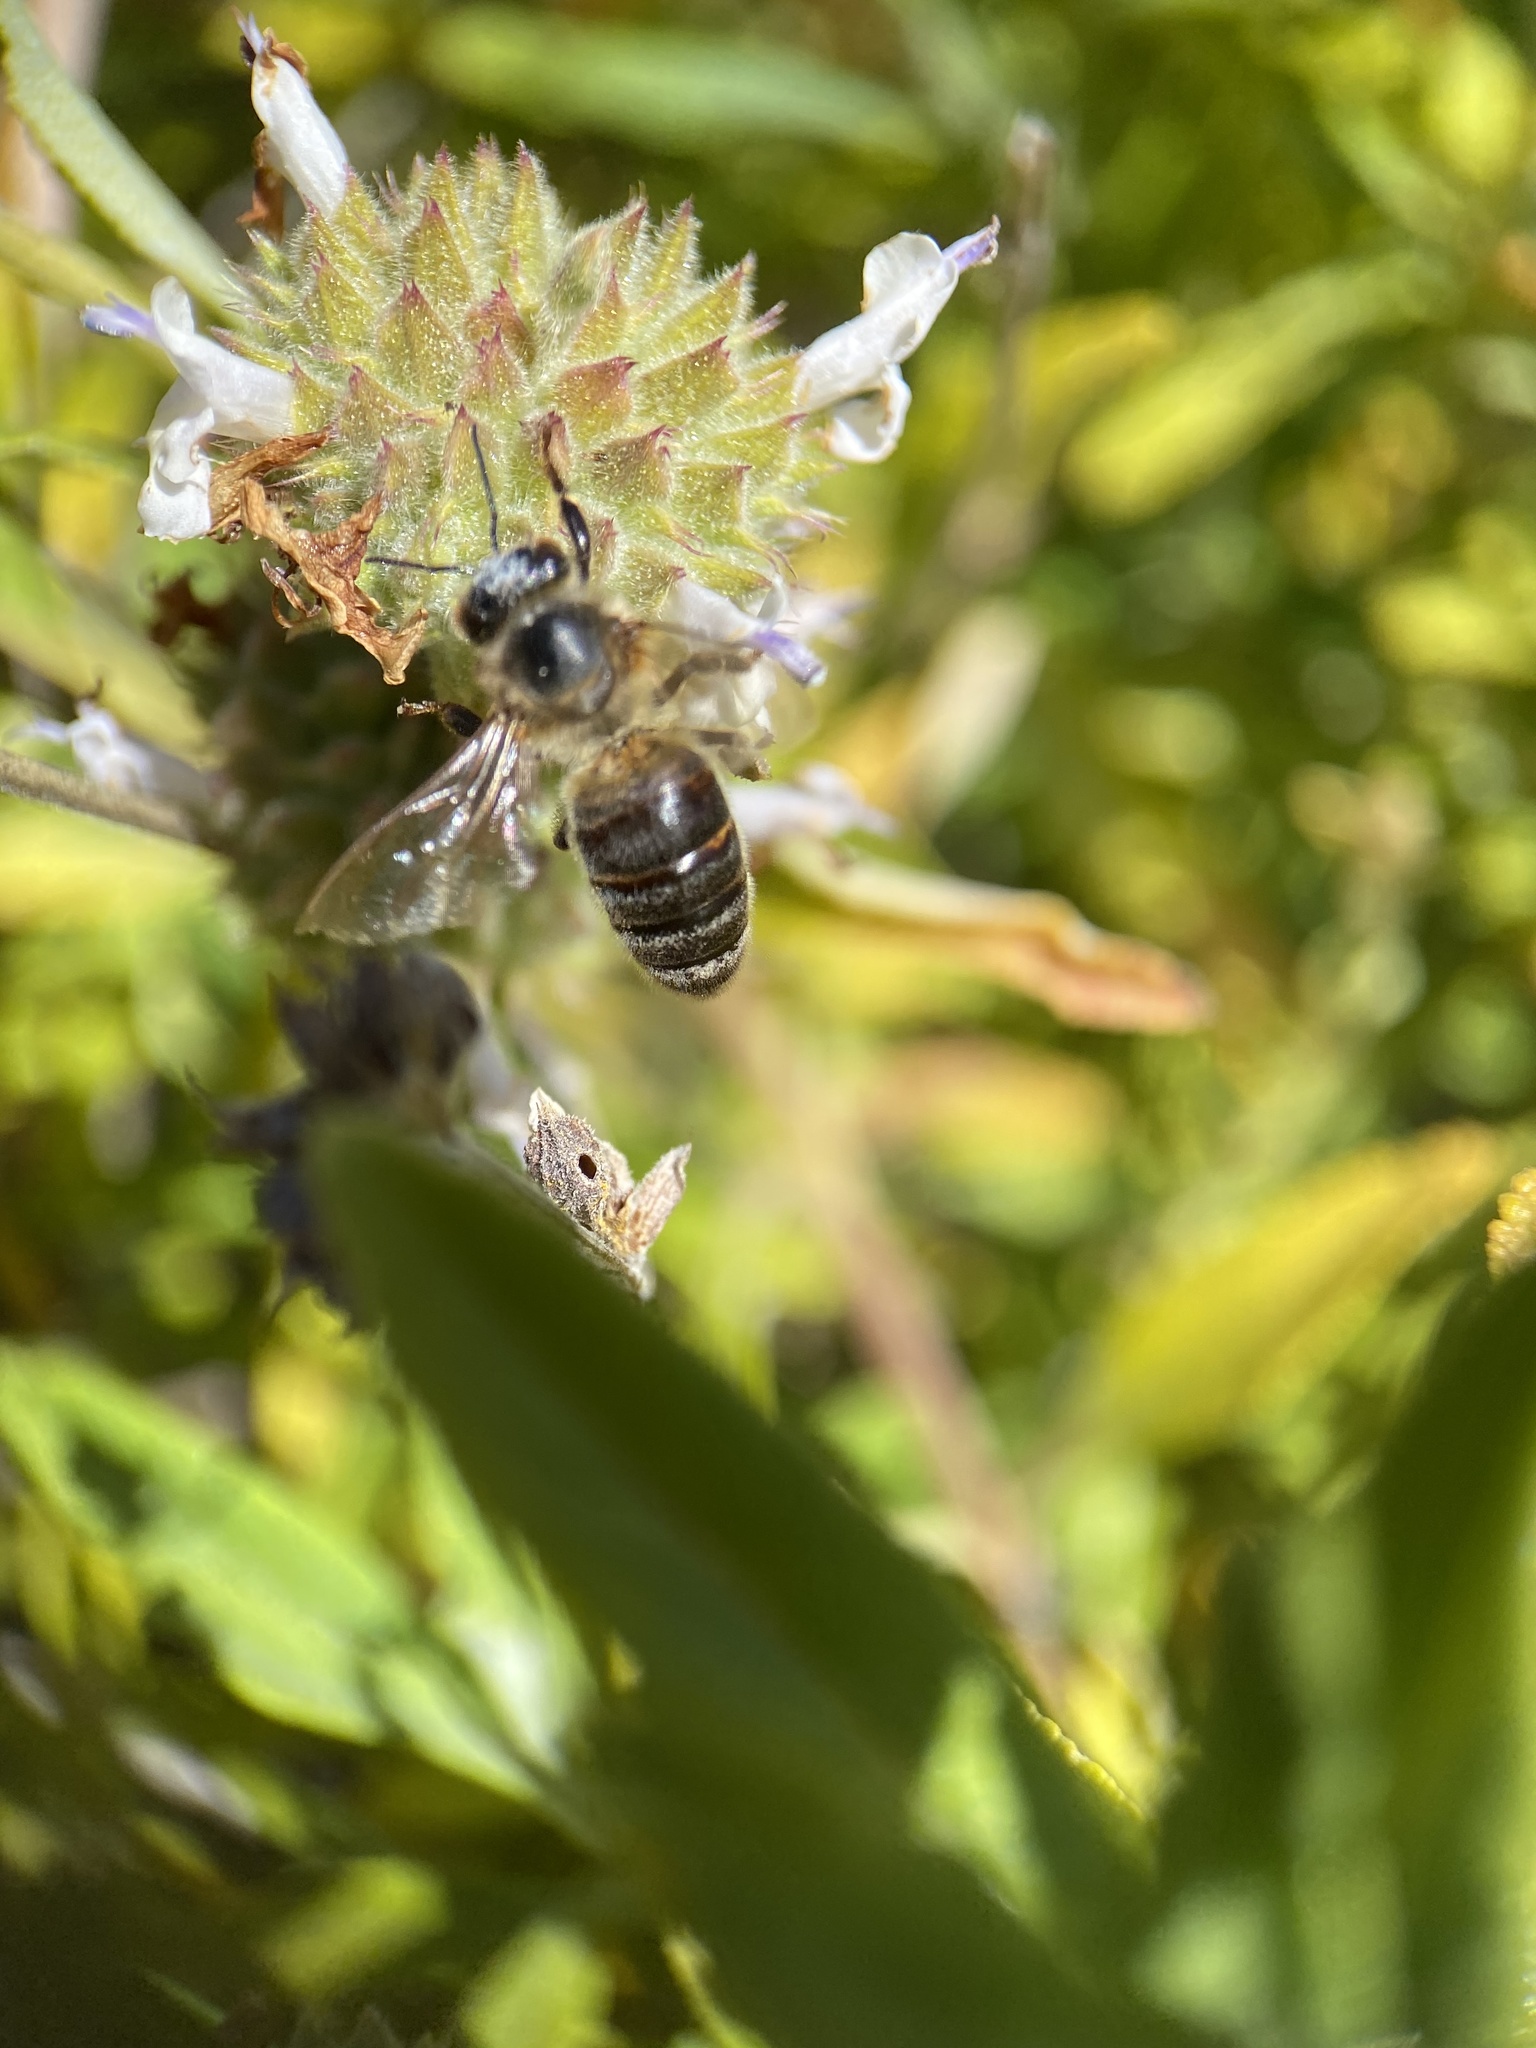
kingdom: Animalia
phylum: Arthropoda
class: Insecta
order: Hymenoptera
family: Apidae
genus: Apis
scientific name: Apis mellifera
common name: Honey bee
